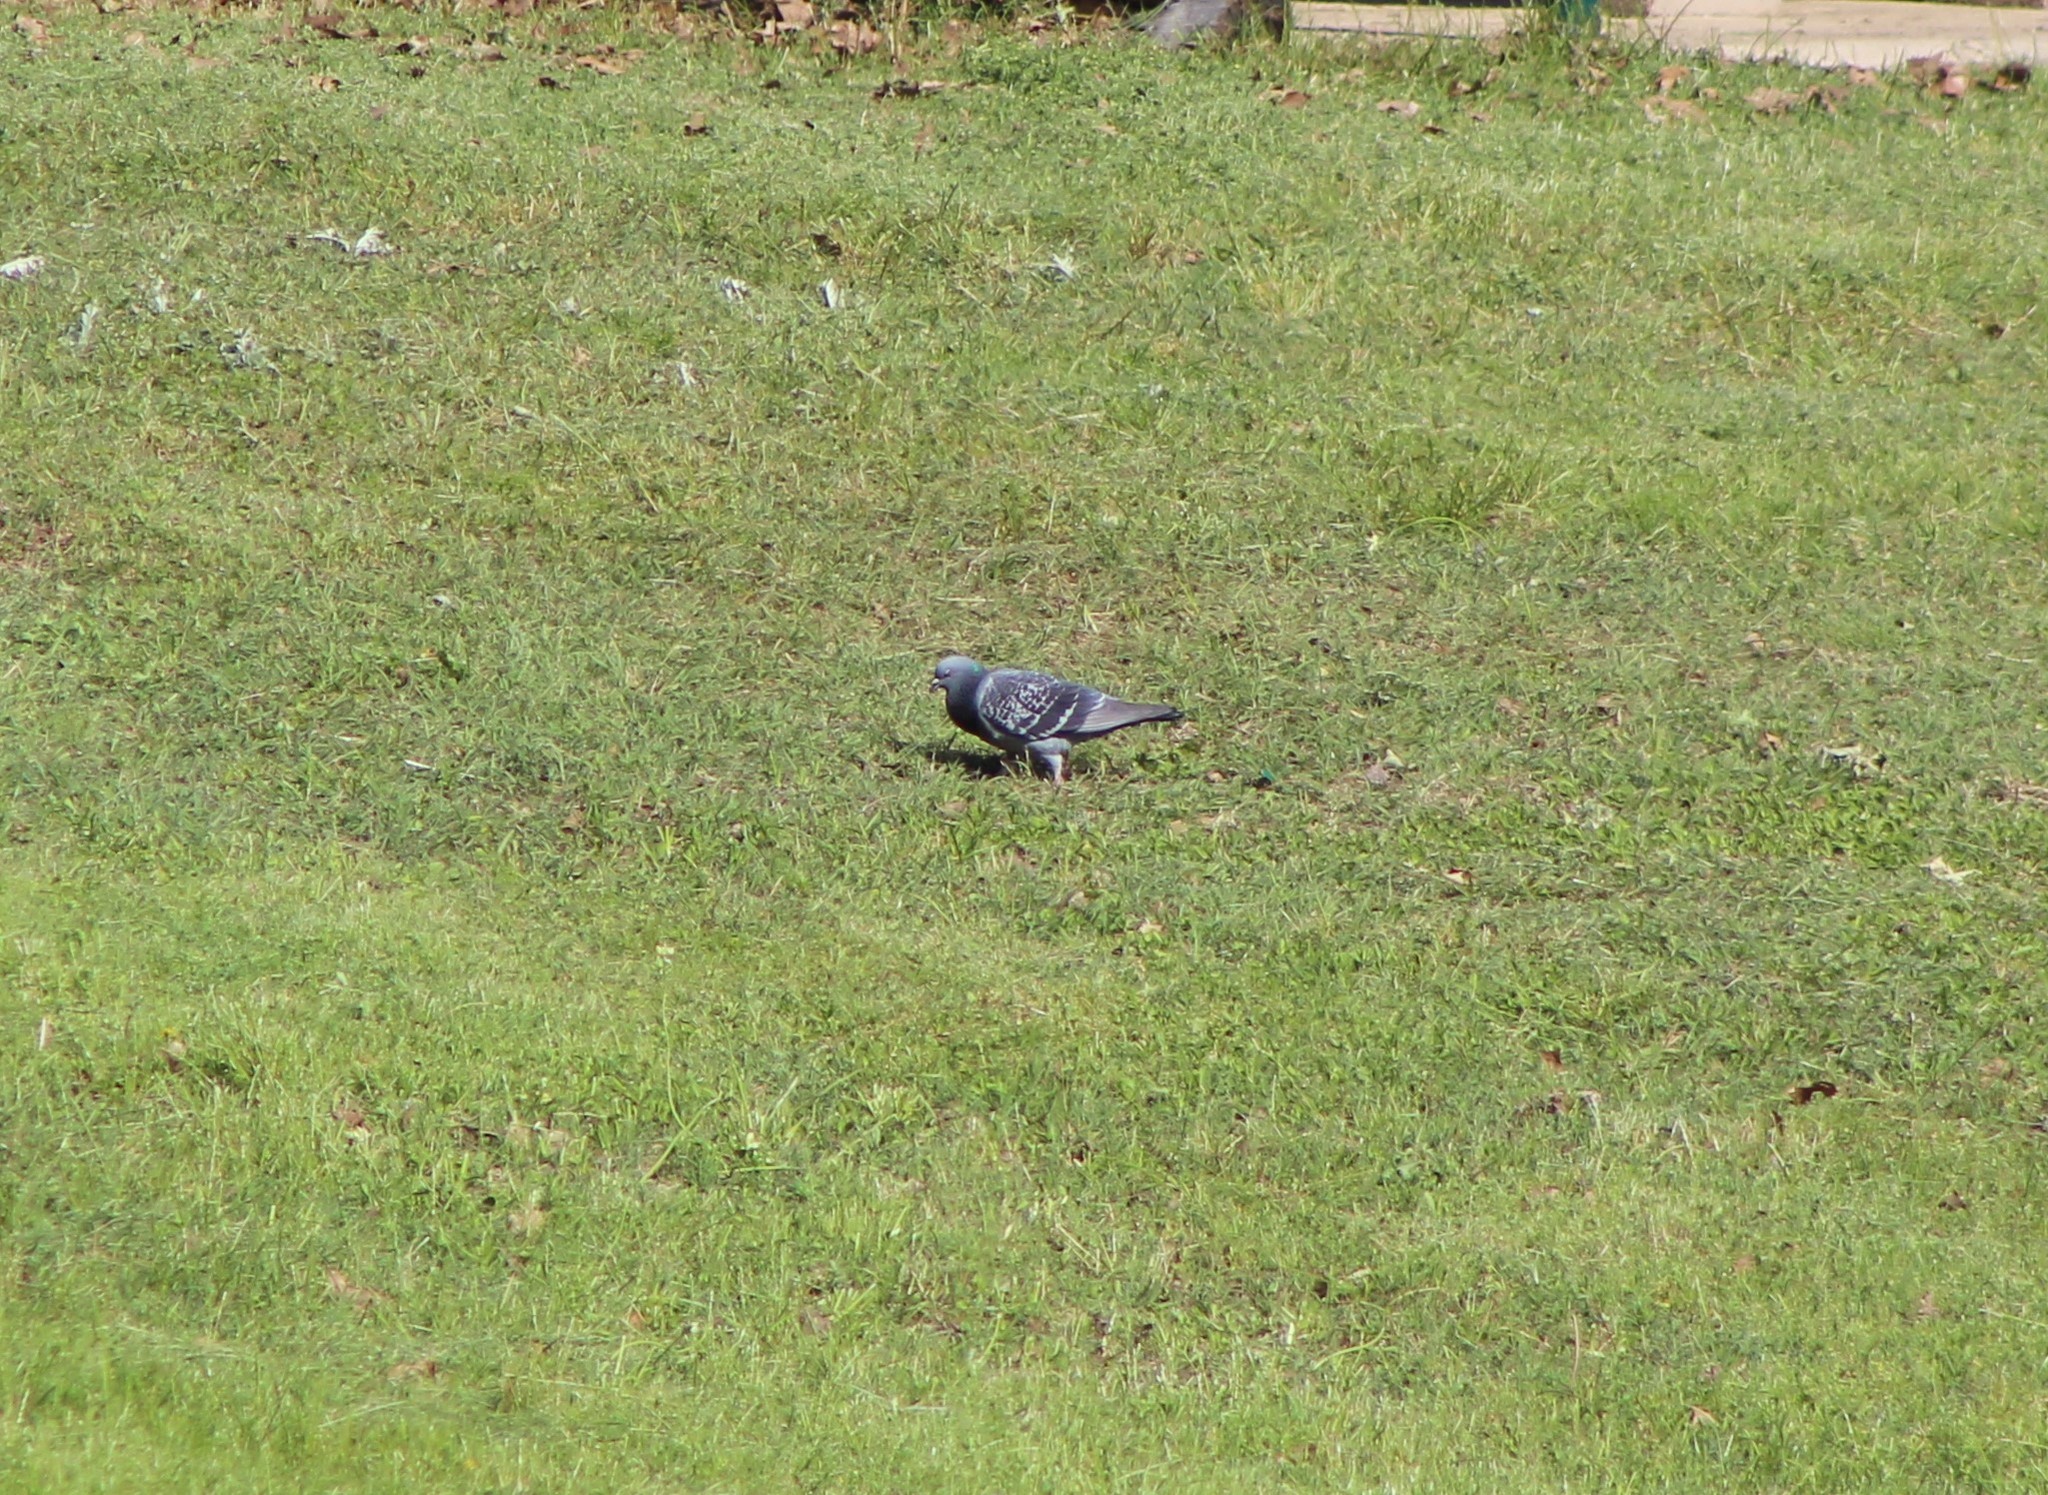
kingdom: Animalia
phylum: Chordata
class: Aves
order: Columbiformes
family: Columbidae
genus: Columba
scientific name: Columba livia
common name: Rock pigeon
